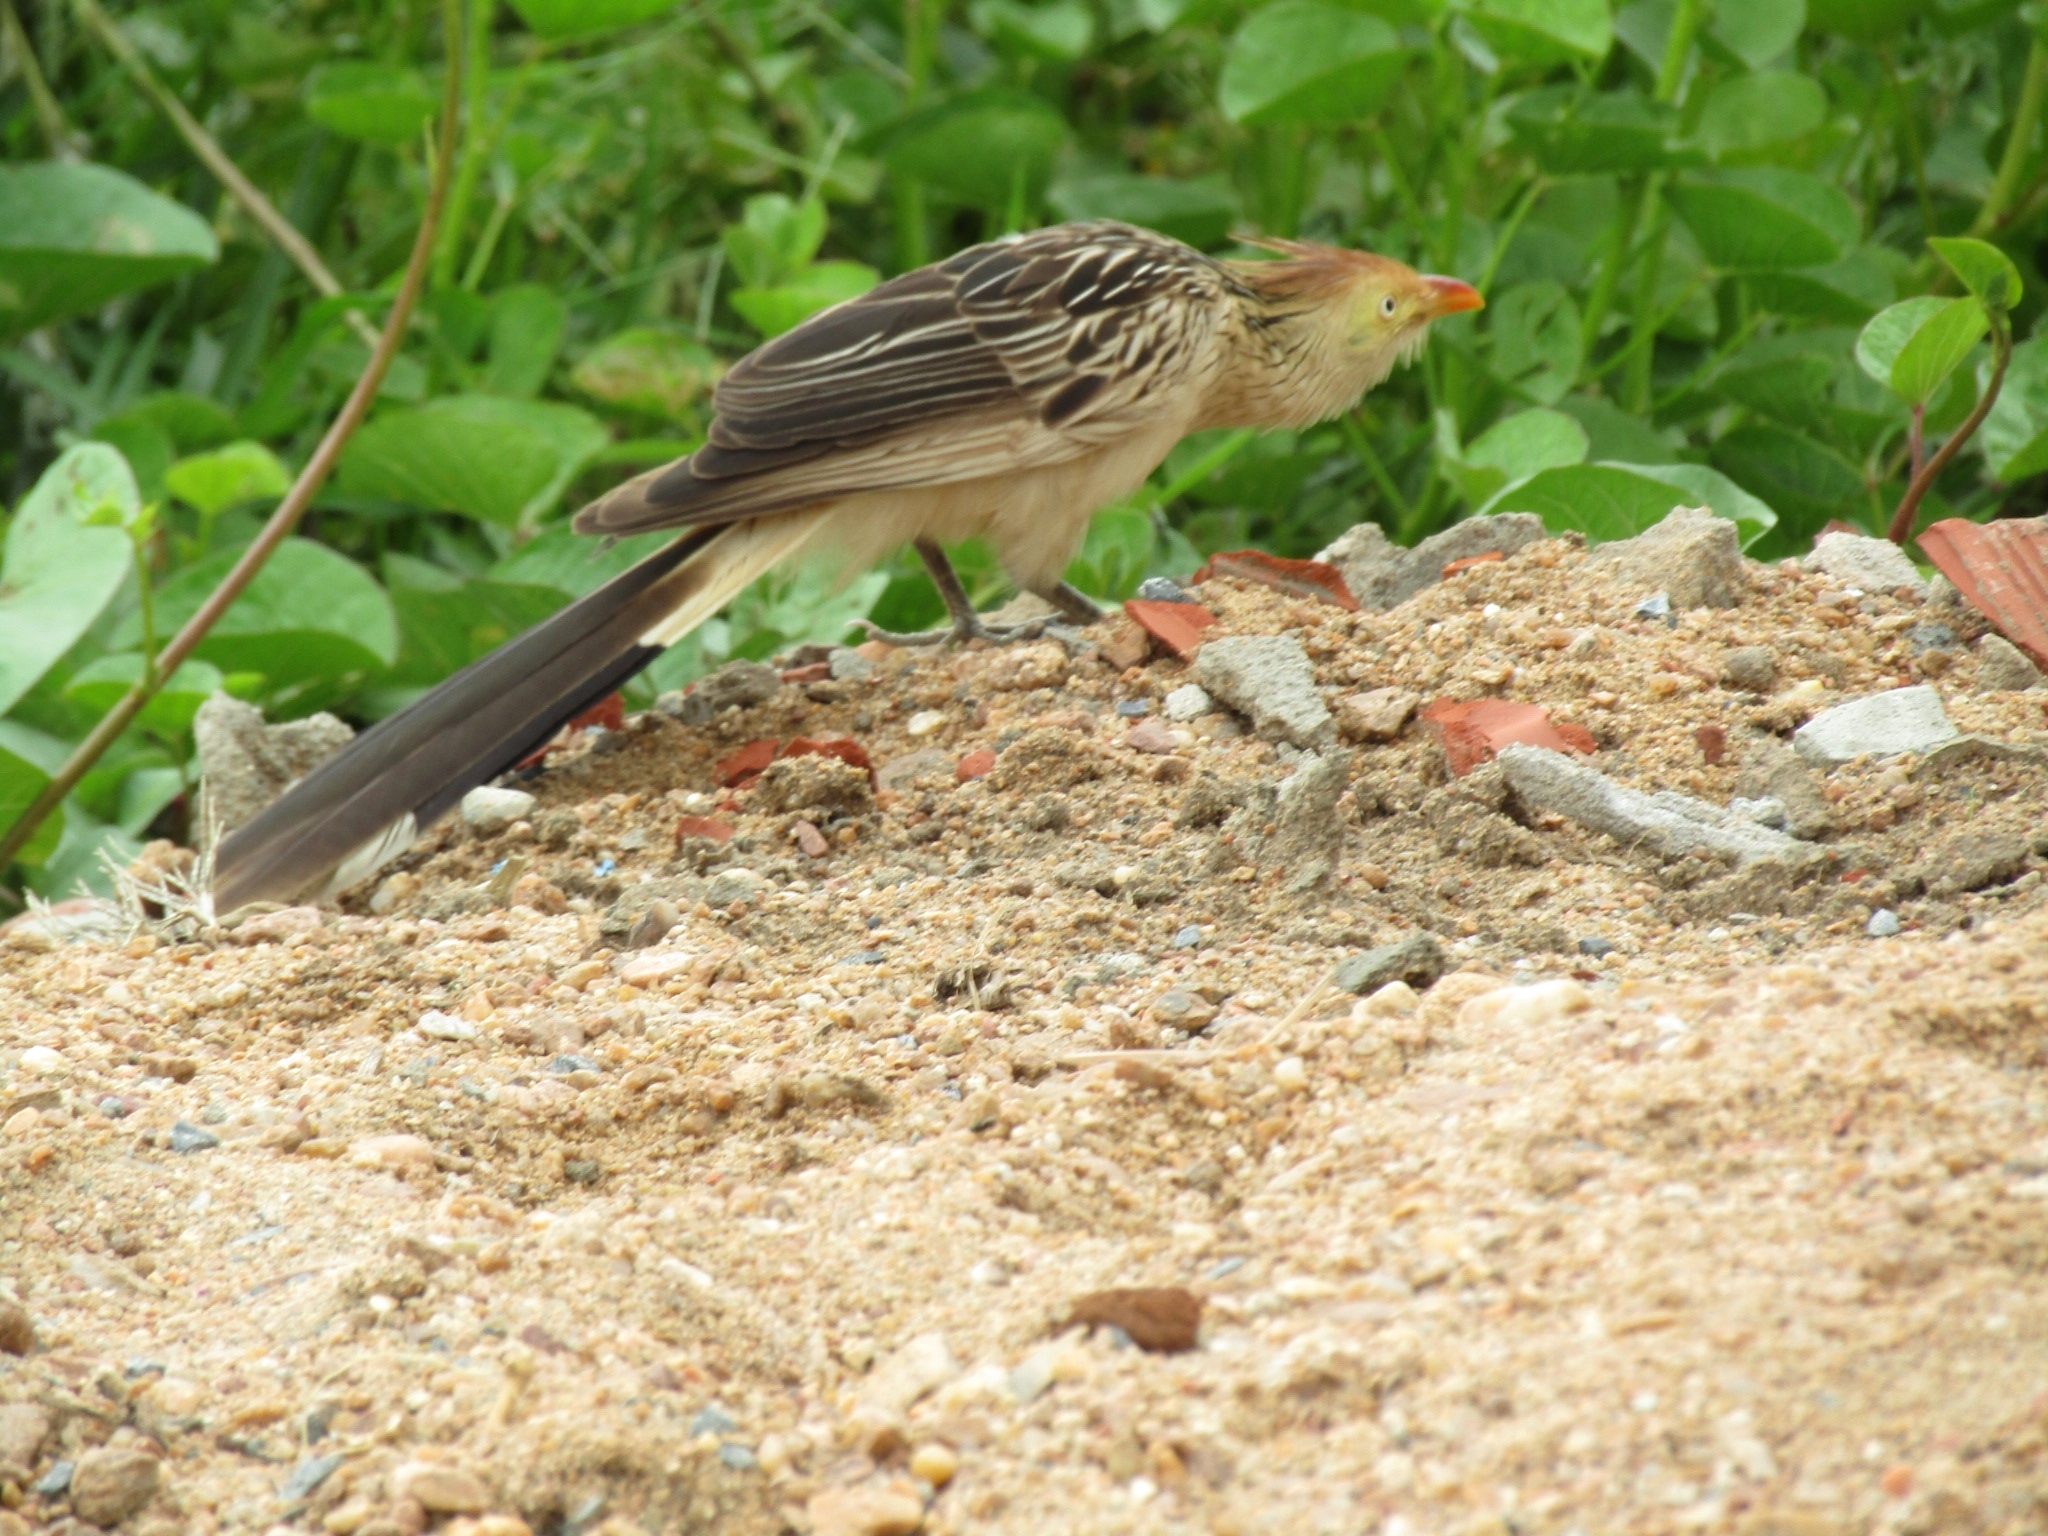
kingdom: Animalia
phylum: Chordata
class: Aves
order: Cuculiformes
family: Cuculidae
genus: Guira
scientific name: Guira guira
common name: Guira cuckoo
